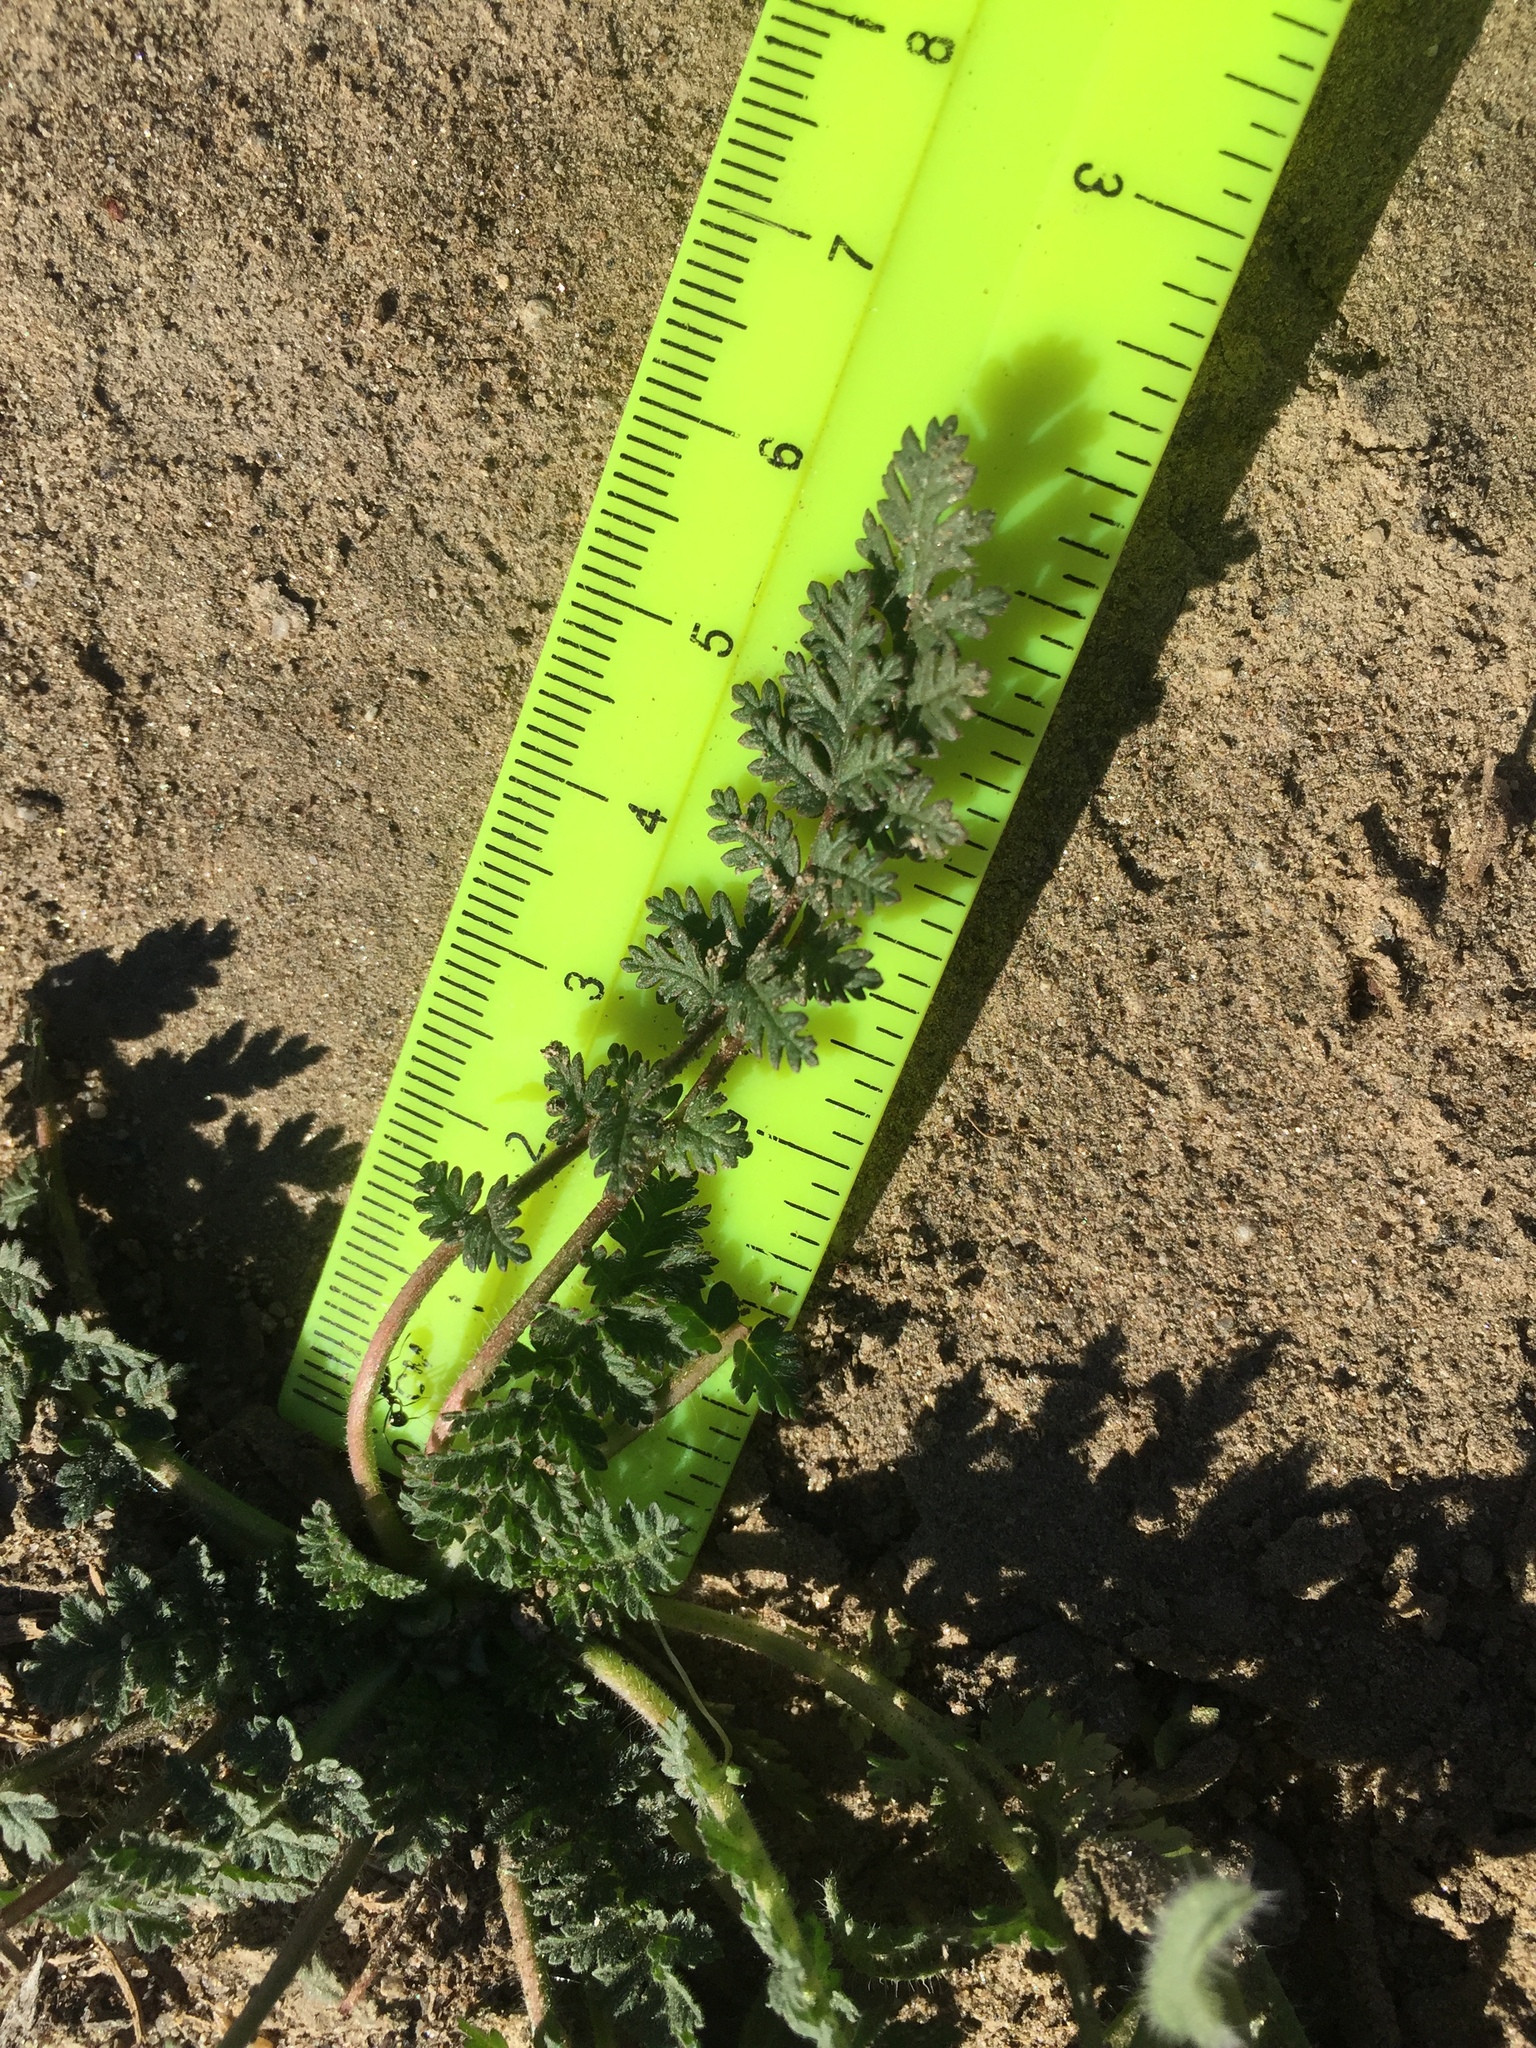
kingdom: Plantae
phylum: Tracheophyta
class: Magnoliopsida
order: Geraniales
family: Geraniaceae
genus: Erodium
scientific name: Erodium cicutarium
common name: Common stork's-bill
